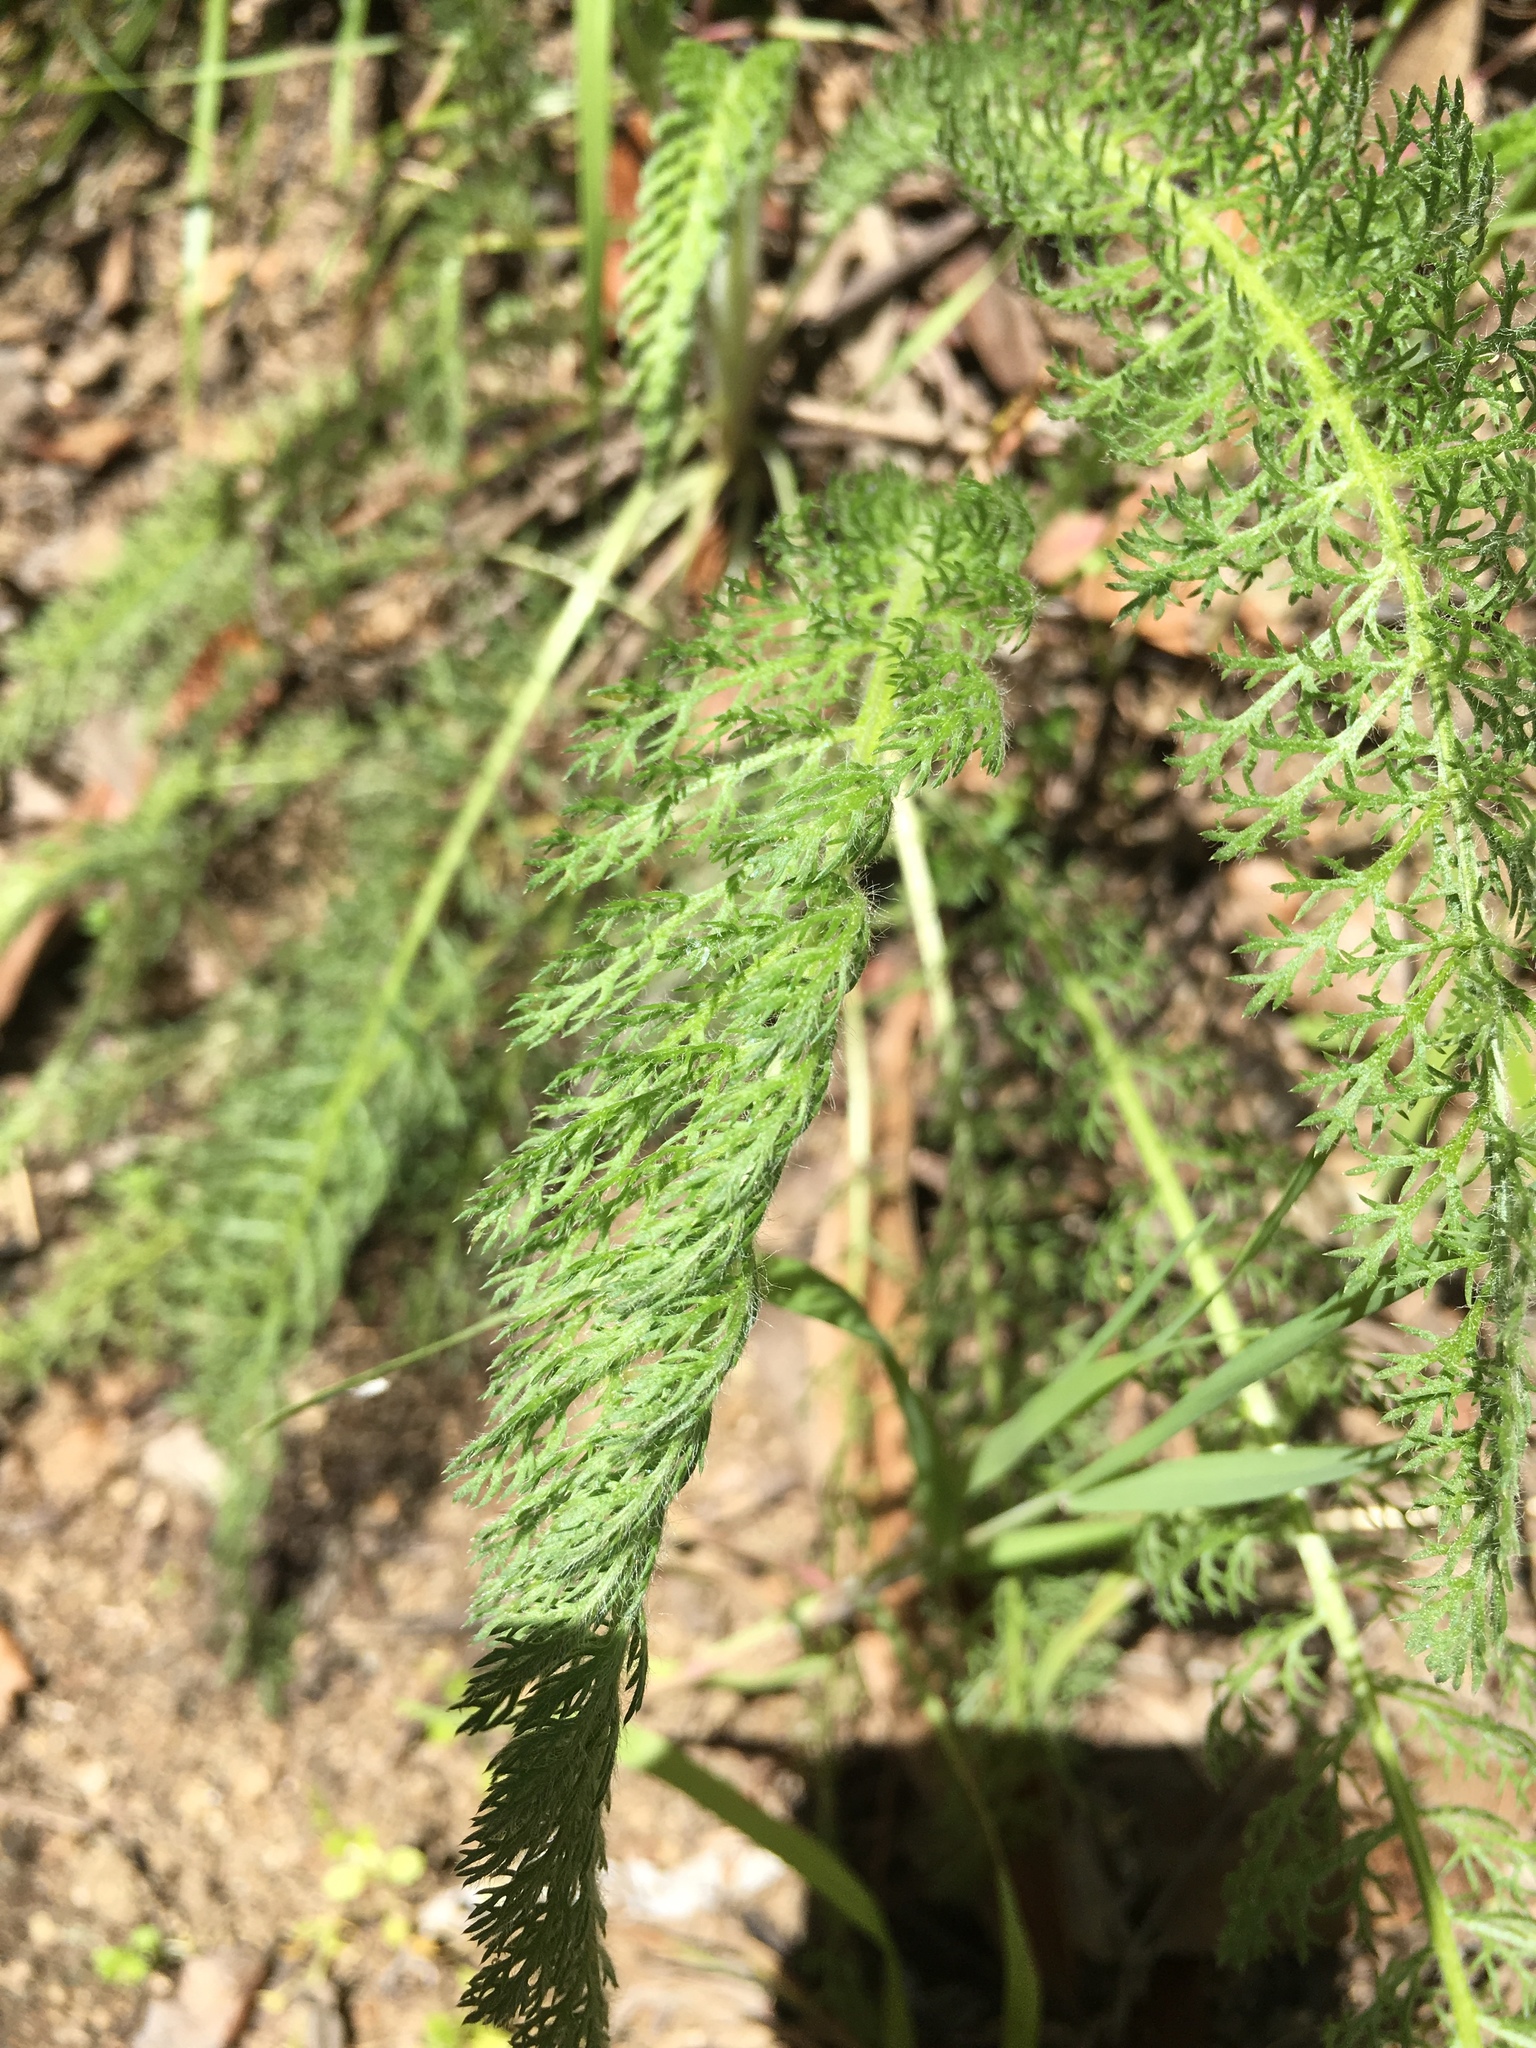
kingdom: Plantae
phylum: Tracheophyta
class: Magnoliopsida
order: Asterales
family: Asteraceae
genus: Achillea
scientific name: Achillea millefolium
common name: Yarrow
